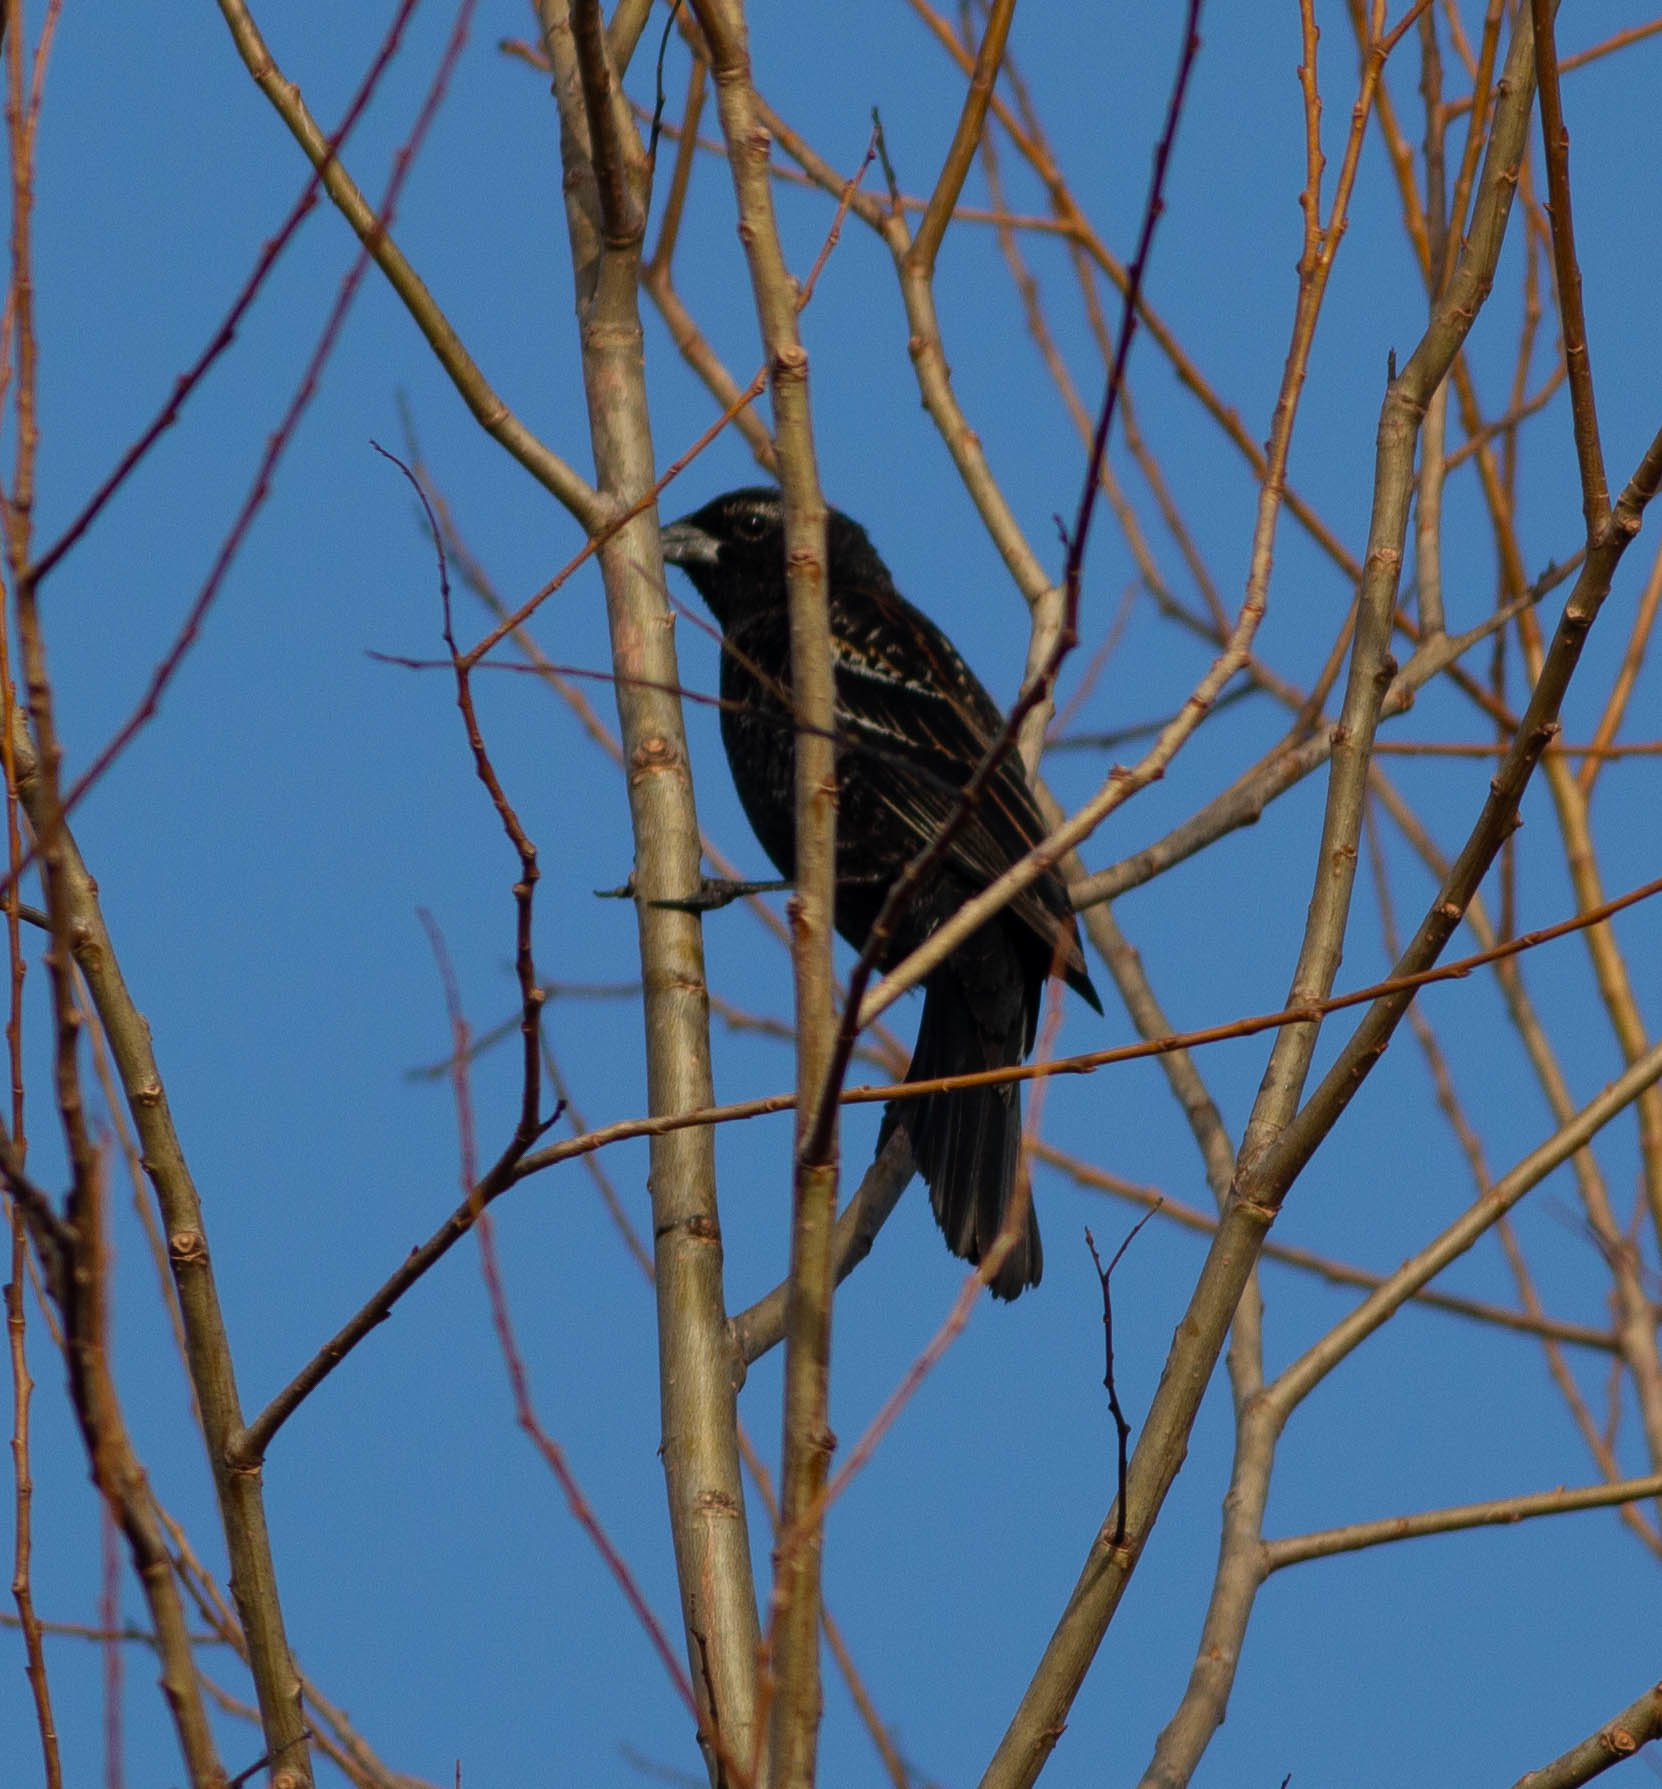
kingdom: Animalia
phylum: Chordata
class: Aves
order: Passeriformes
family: Icteridae
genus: Agelaius
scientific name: Agelaius phoeniceus
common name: Red-winged blackbird
